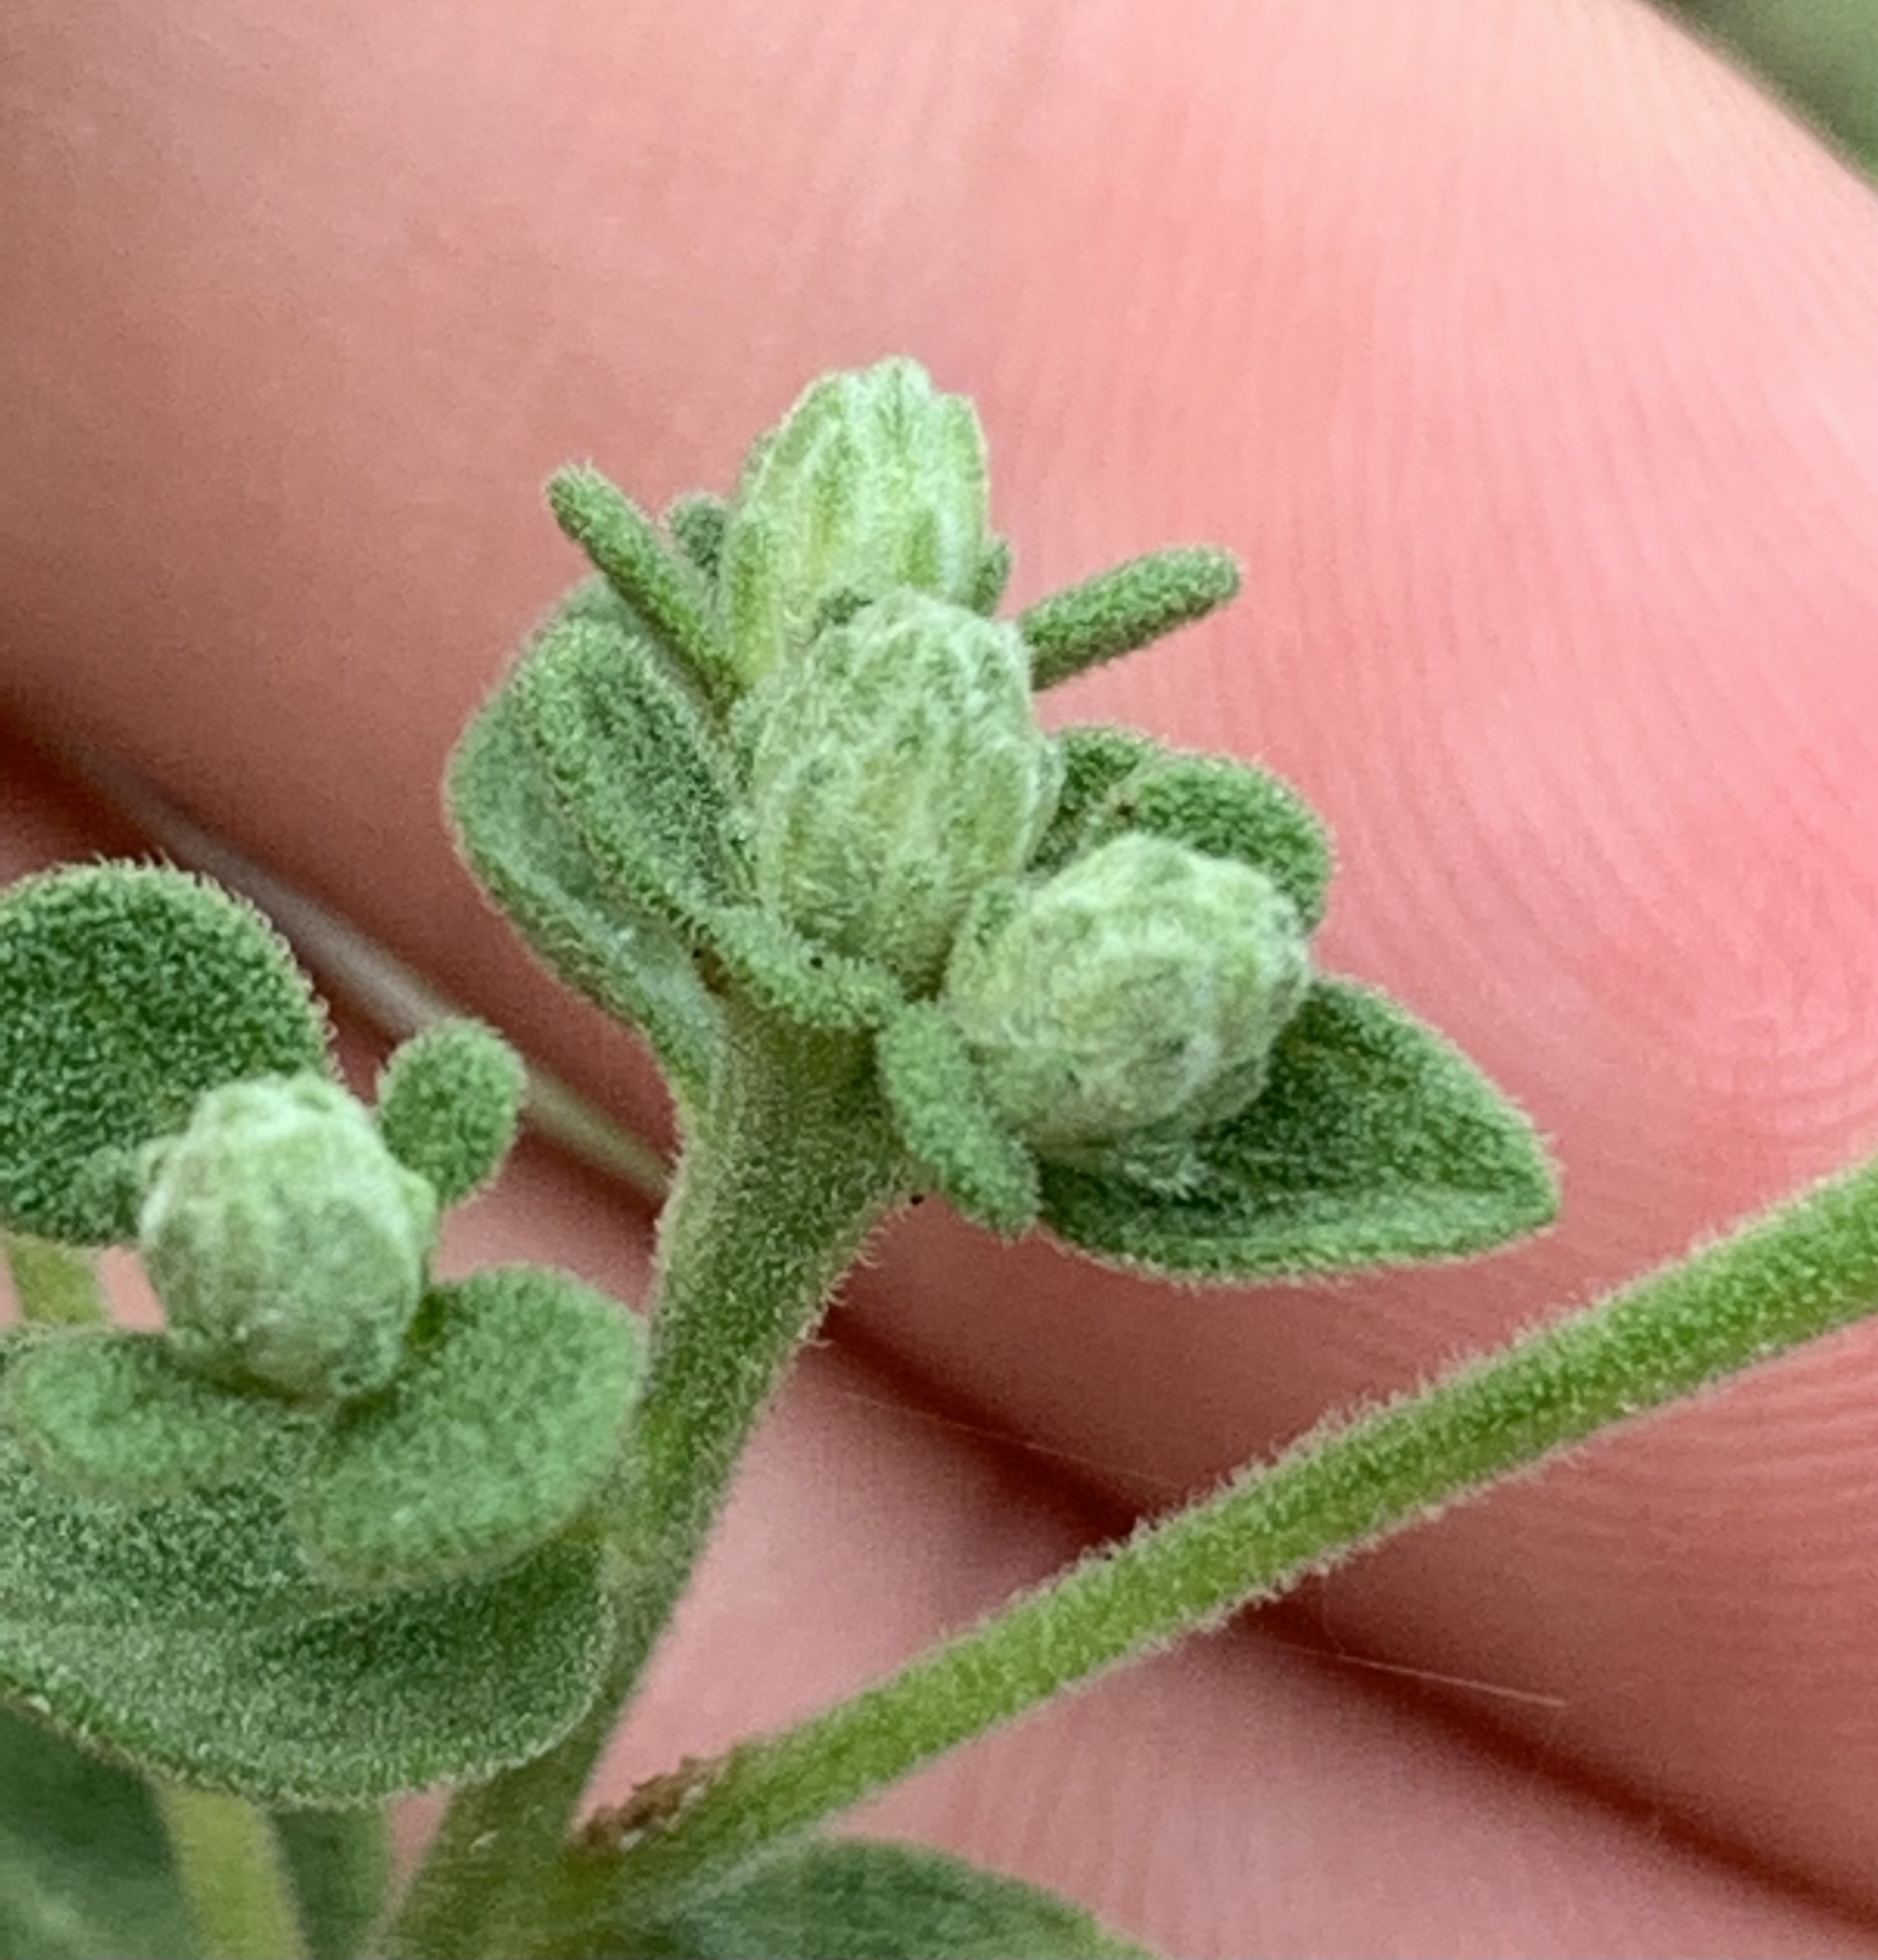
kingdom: Plantae
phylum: Tracheophyta
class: Magnoliopsida
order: Asterales
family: Asteraceae
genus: Sericocarpus
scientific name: Sericocarpus tortifolius
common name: Dixie aster
